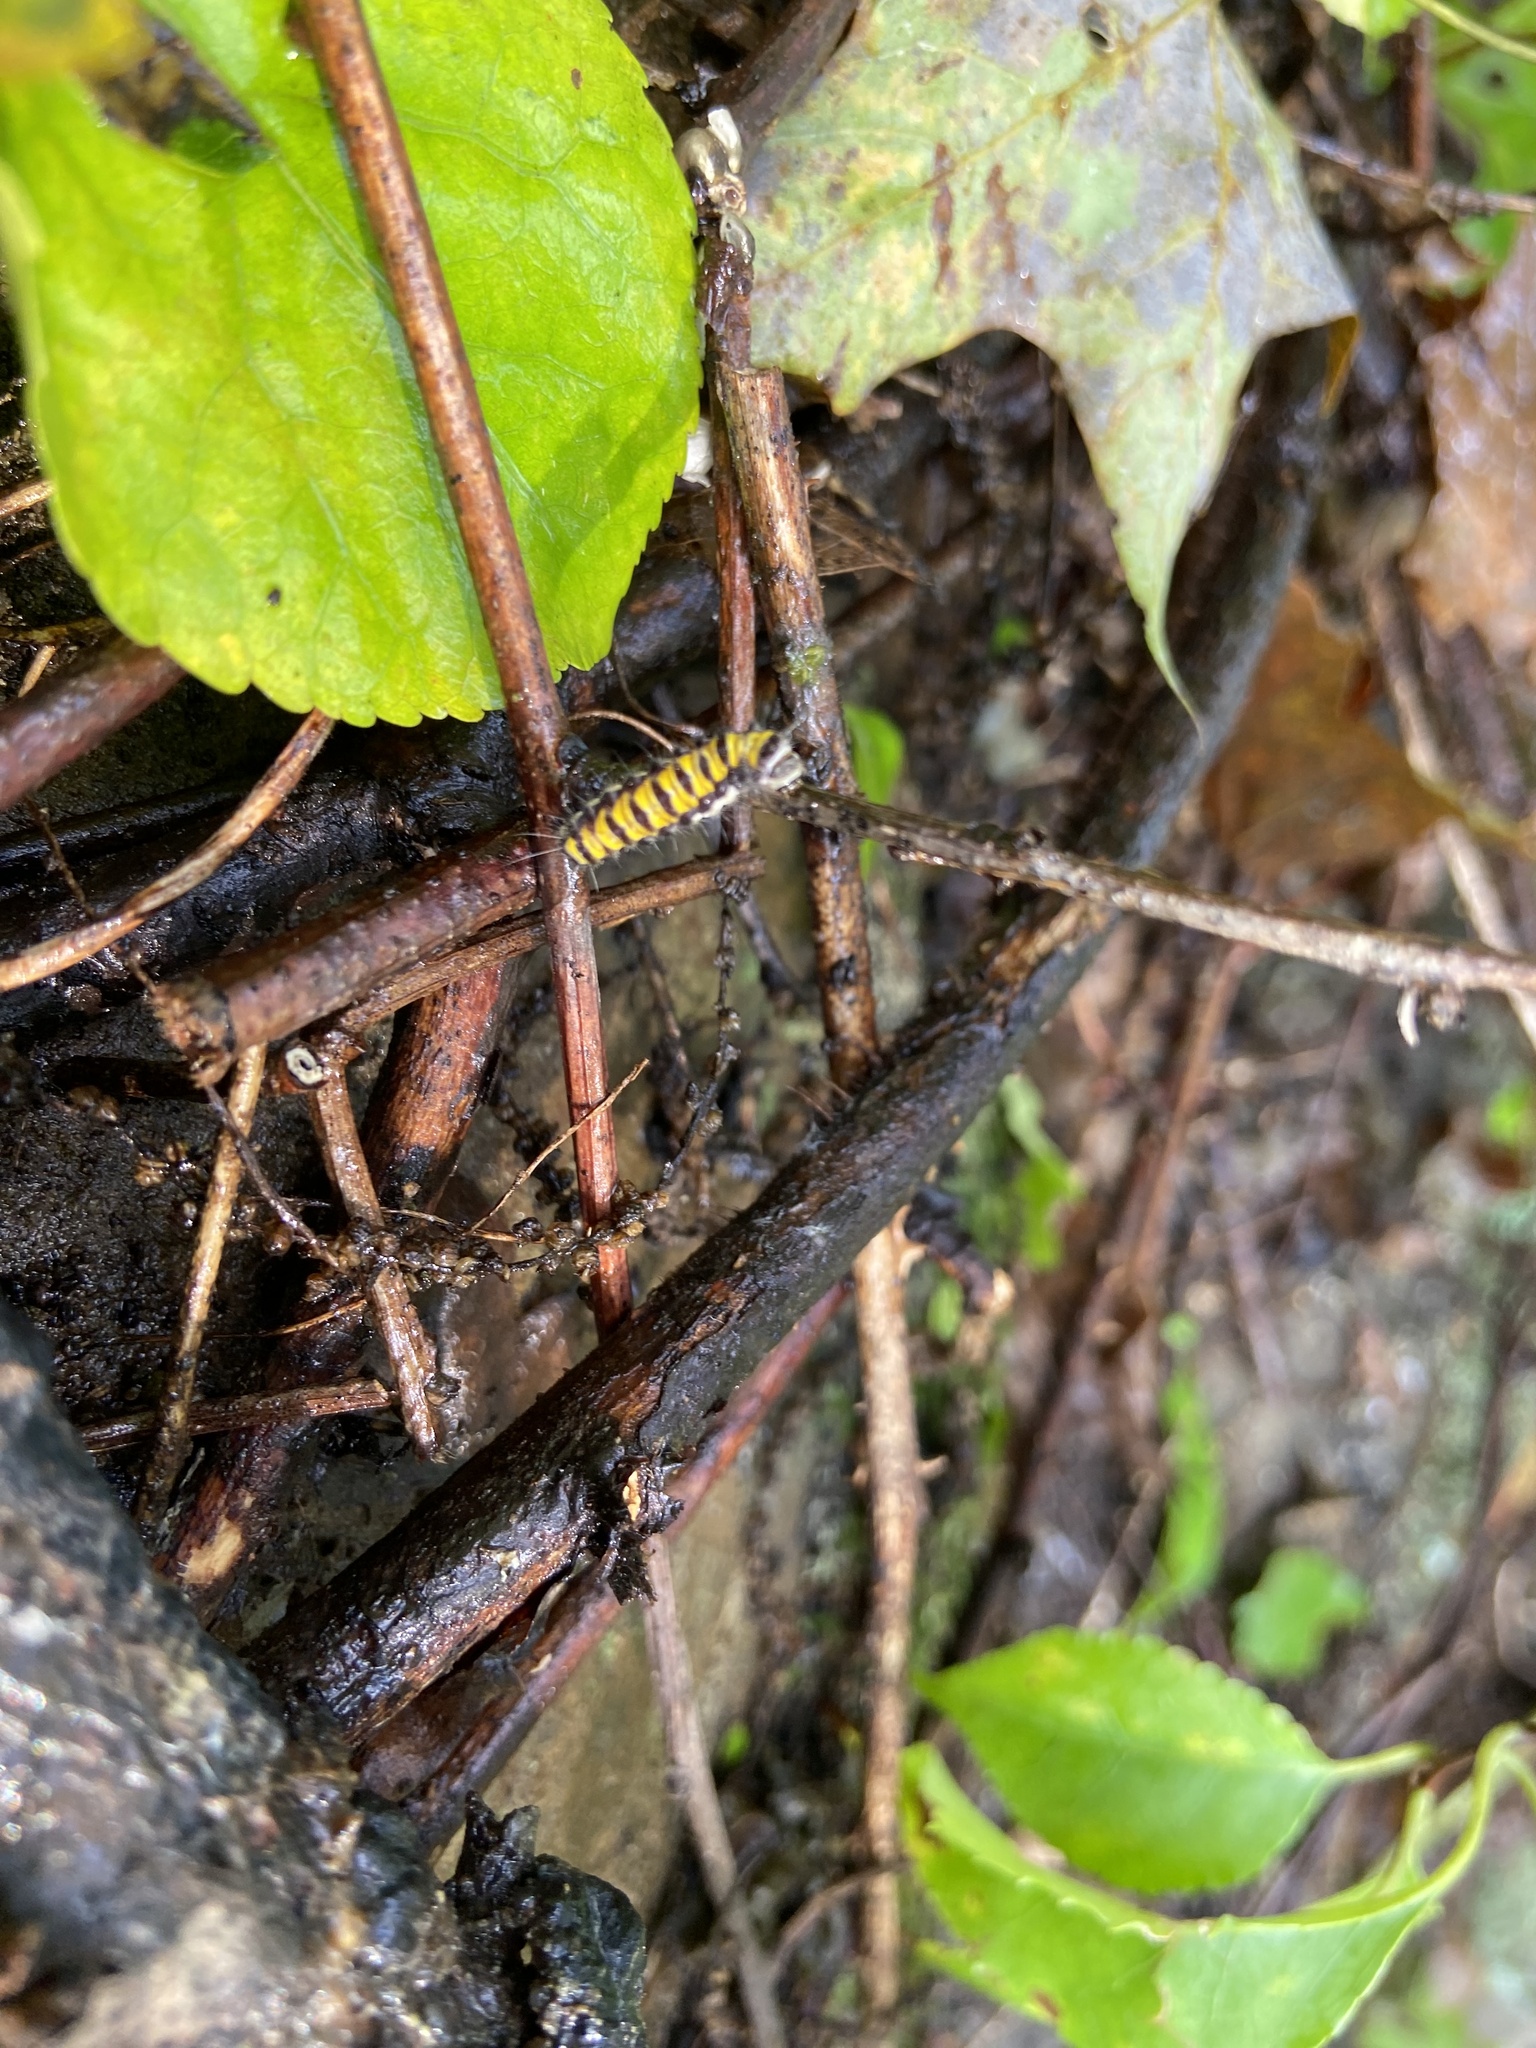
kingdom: Animalia
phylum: Arthropoda
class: Insecta
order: Lepidoptera
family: Zygaenidae
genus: Harrisina
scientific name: Harrisina americana
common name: Grapeleaf skeletonizer moth
